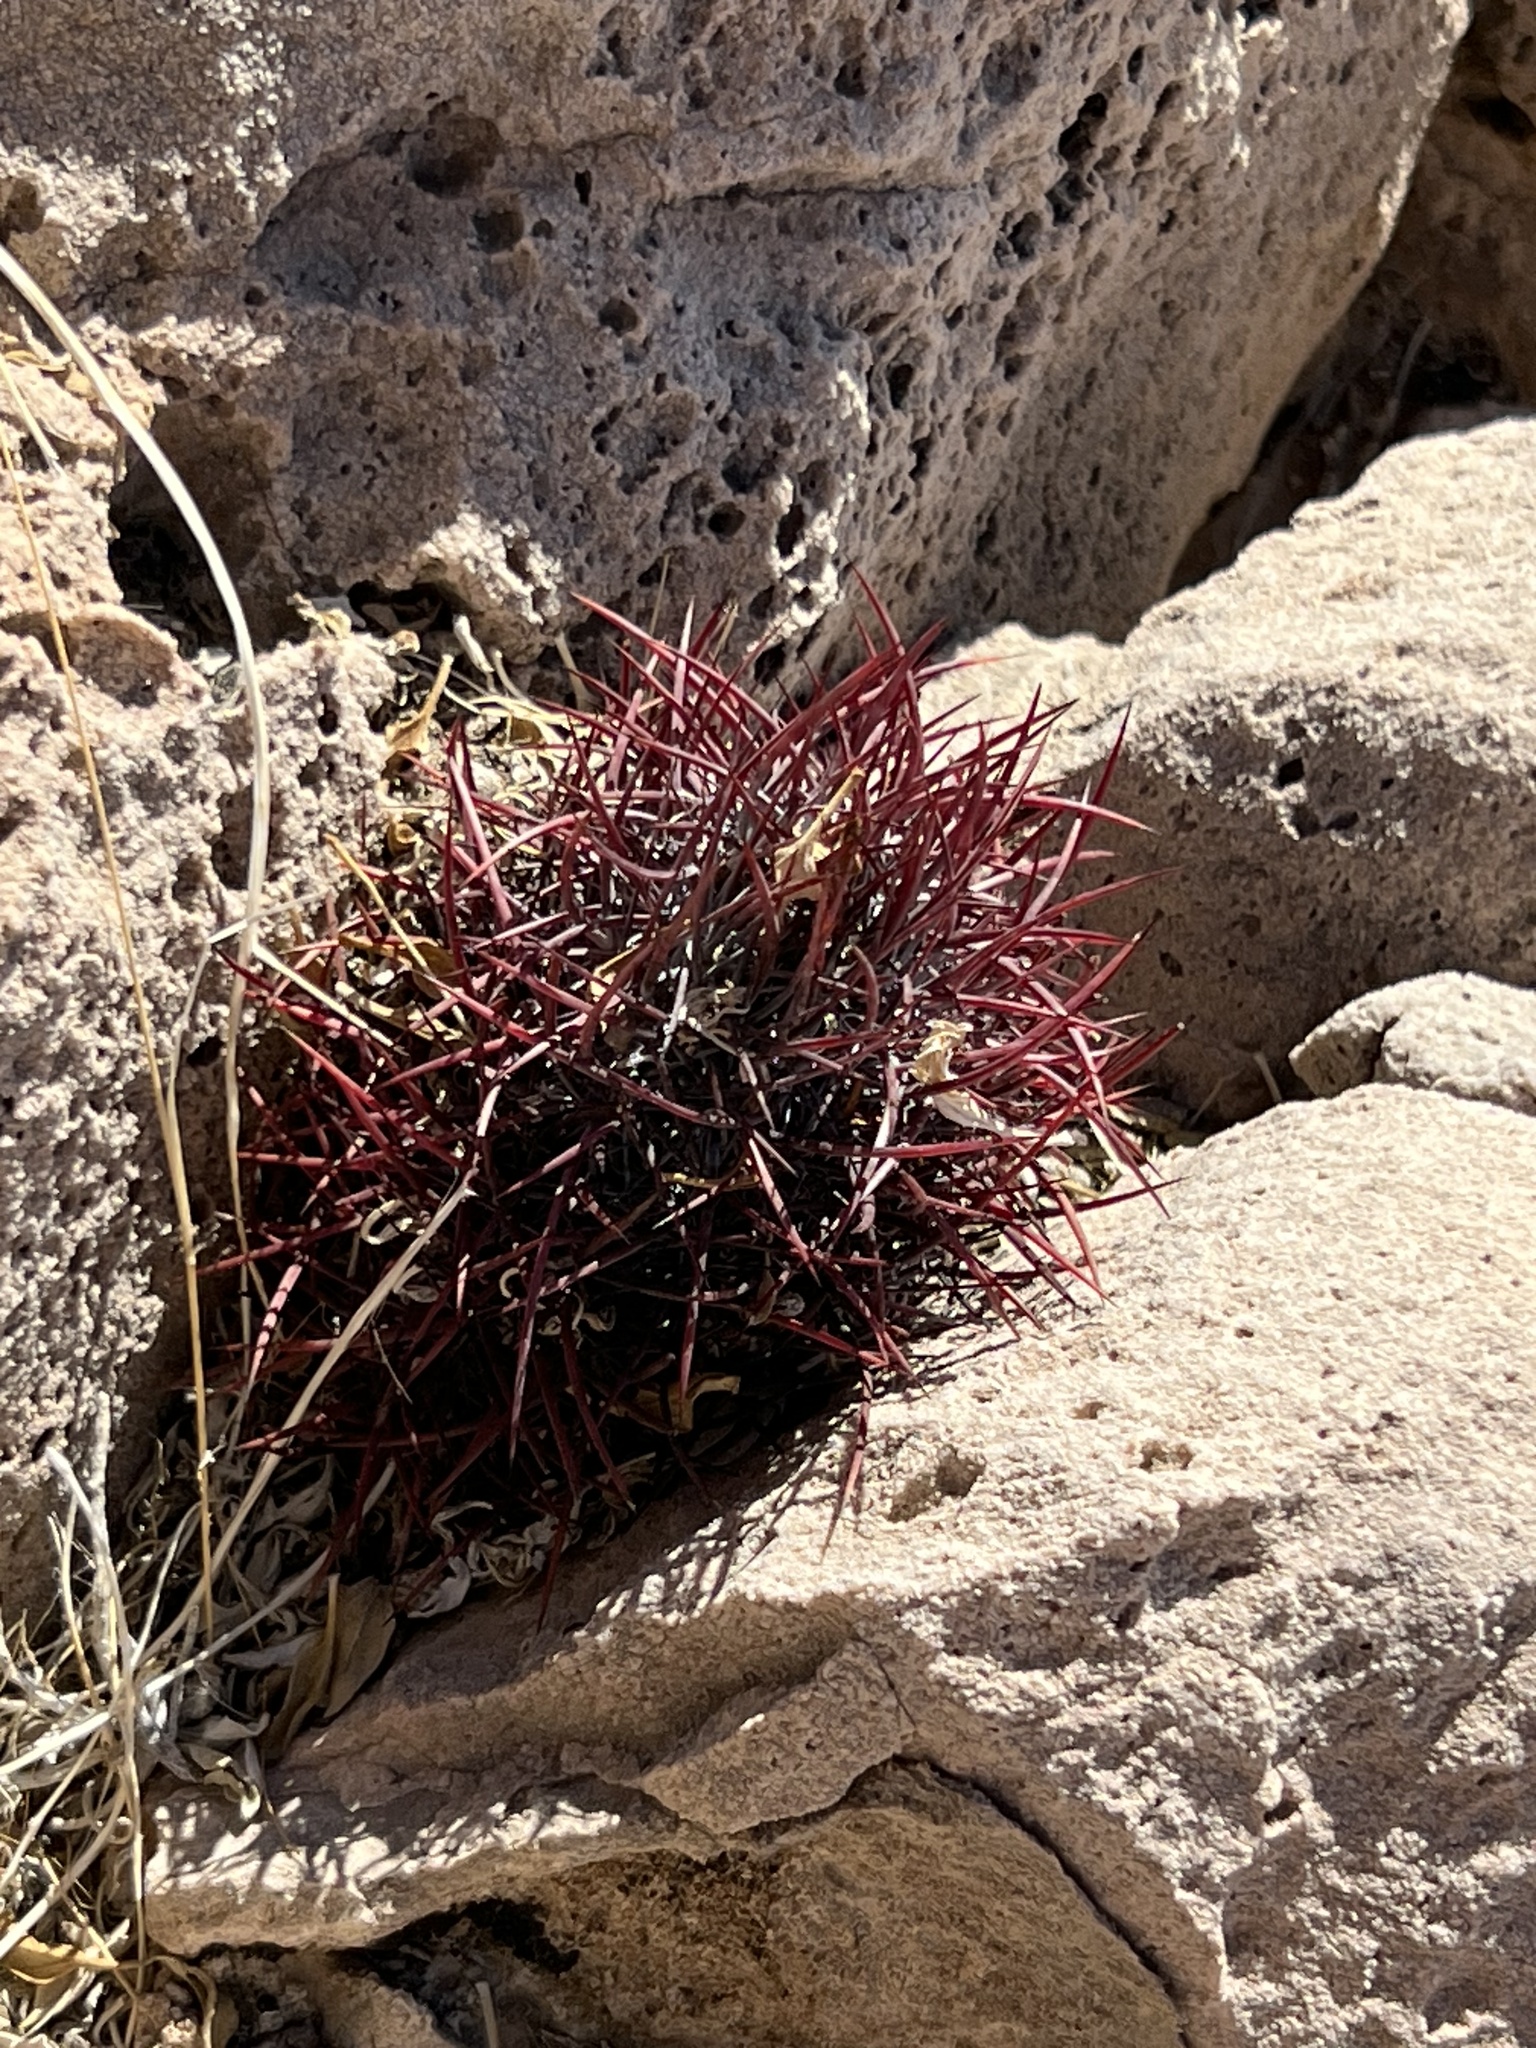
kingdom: Plantae
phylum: Tracheophyta
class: Magnoliopsida
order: Caryophyllales
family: Cactaceae
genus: Sclerocactus
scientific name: Sclerocactus johnsonii
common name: Eight-spine fishhook cactus
